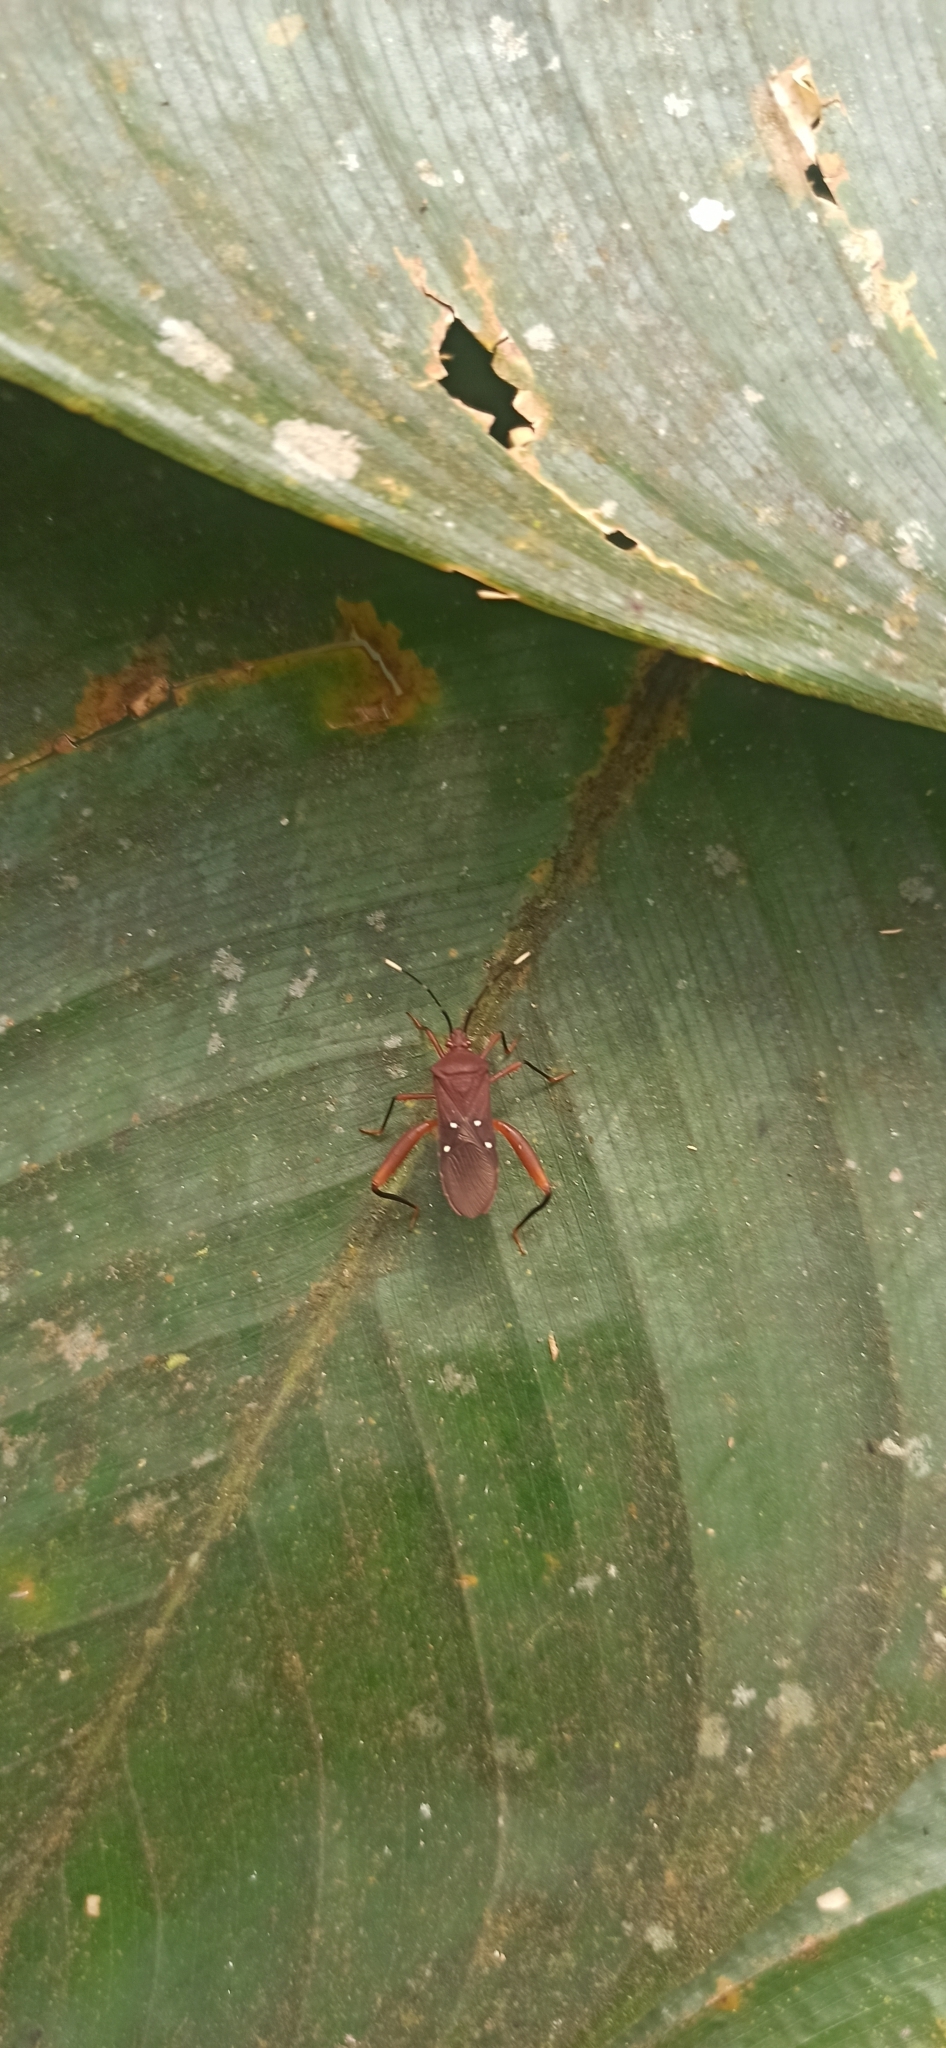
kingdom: Animalia
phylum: Arthropoda
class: Insecta
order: Hemiptera
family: Coreidae
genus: Leptoscelis
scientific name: Leptoscelis quadrisignatus
